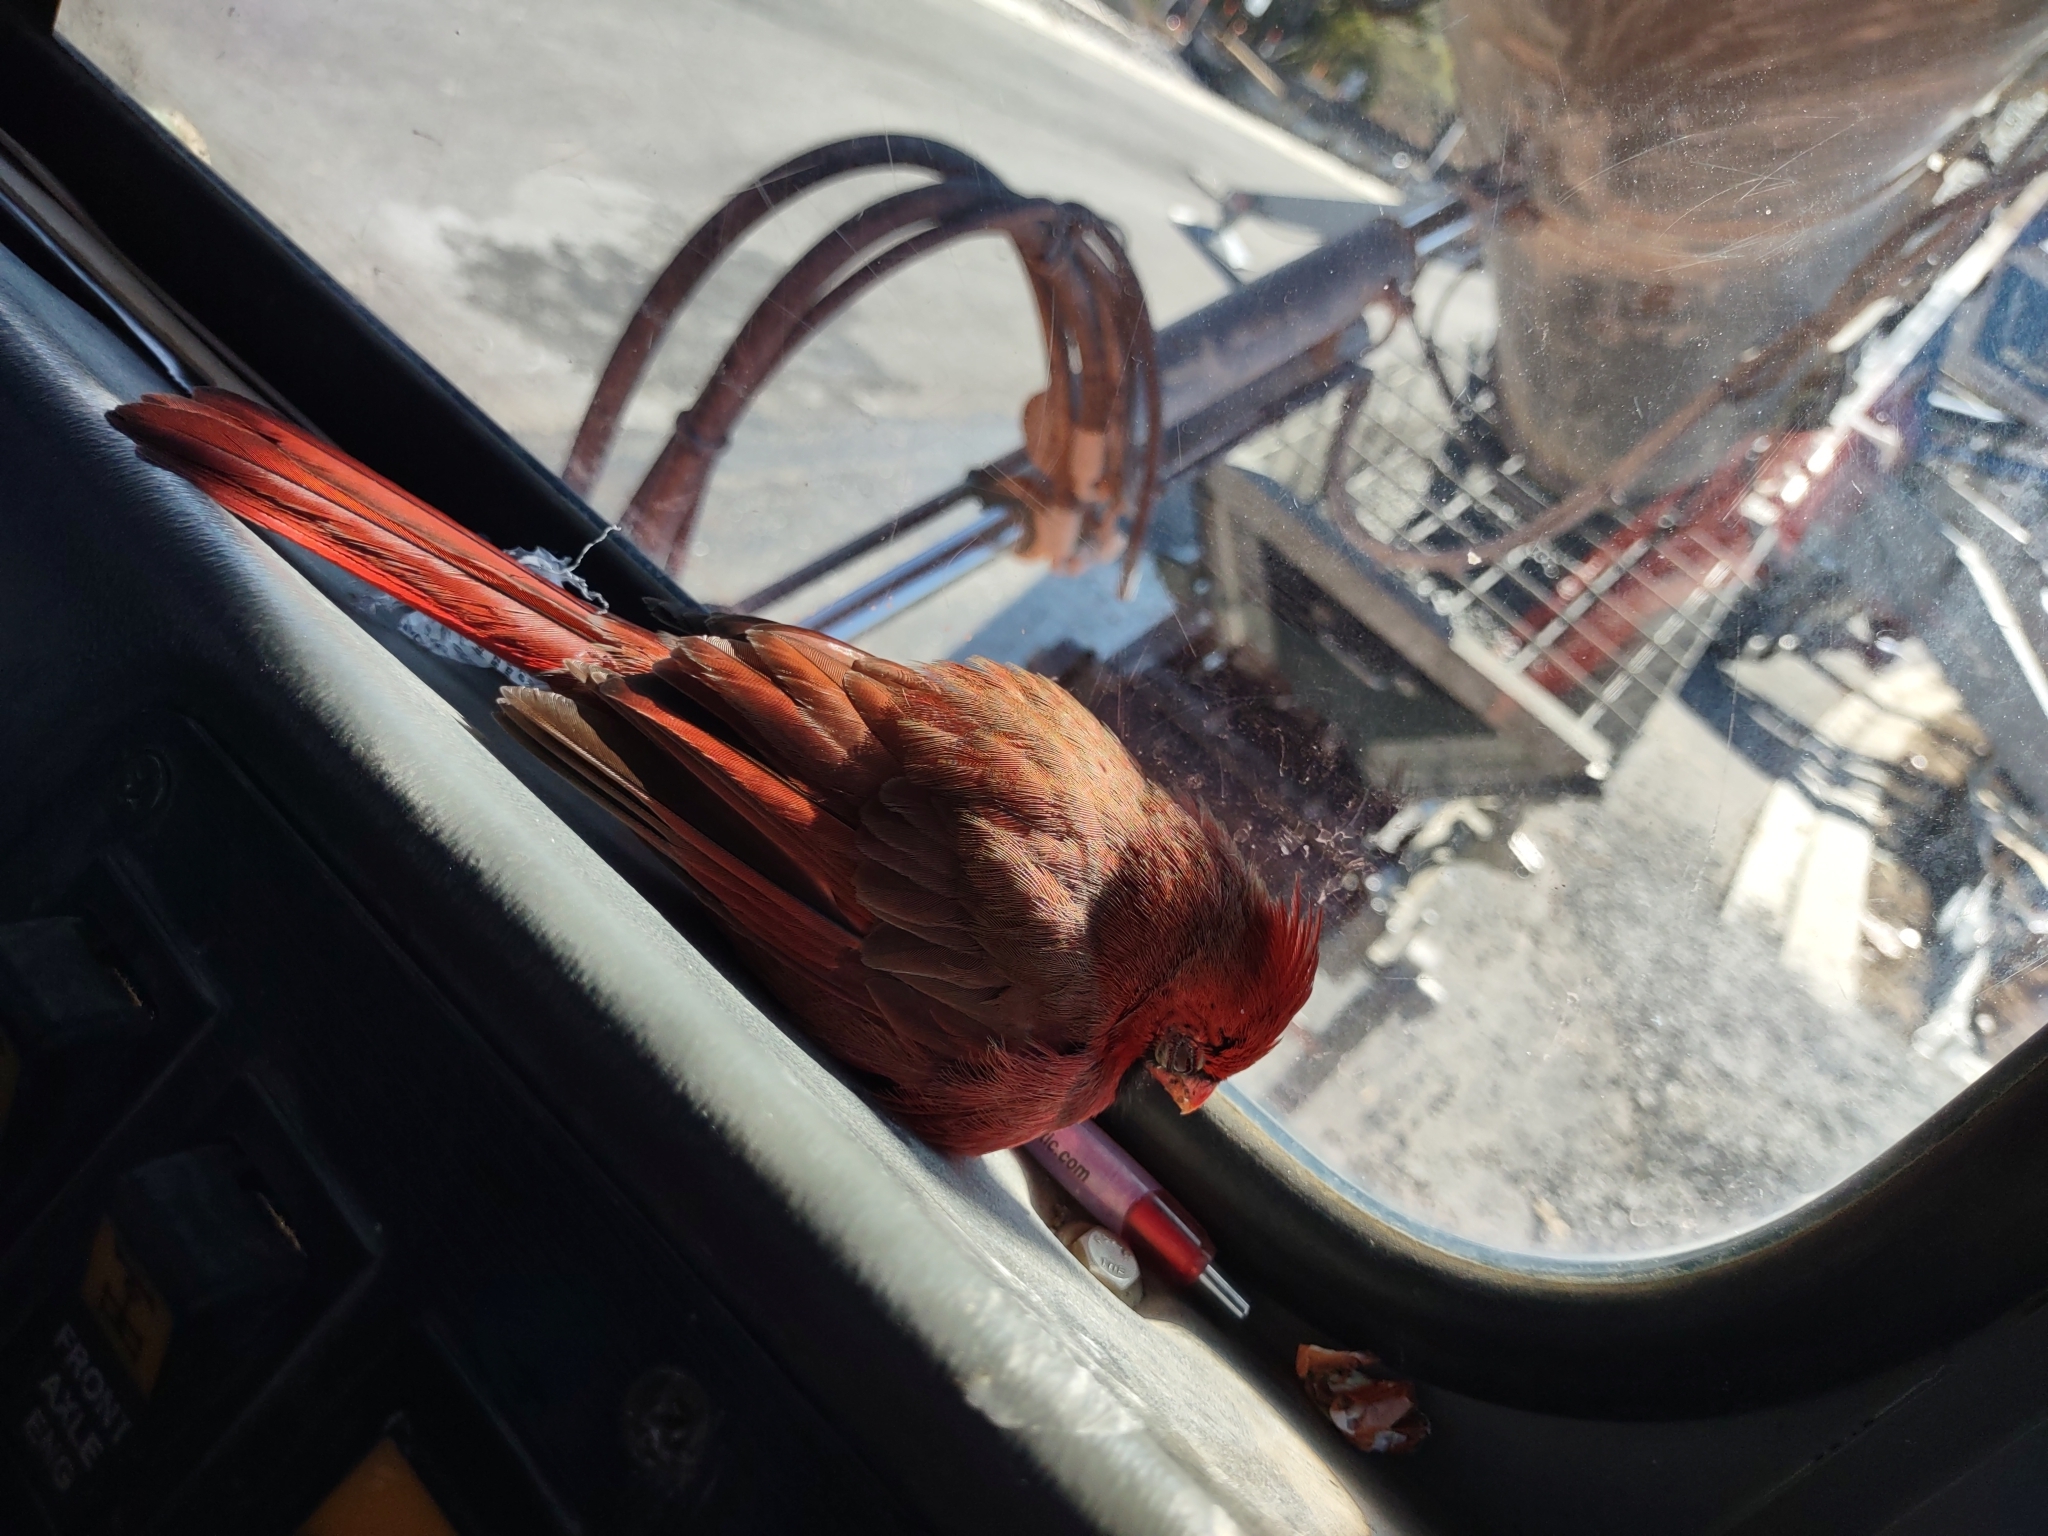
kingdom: Animalia
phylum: Chordata
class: Aves
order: Passeriformes
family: Cardinalidae
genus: Cardinalis
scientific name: Cardinalis cardinalis
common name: Northern cardinal
